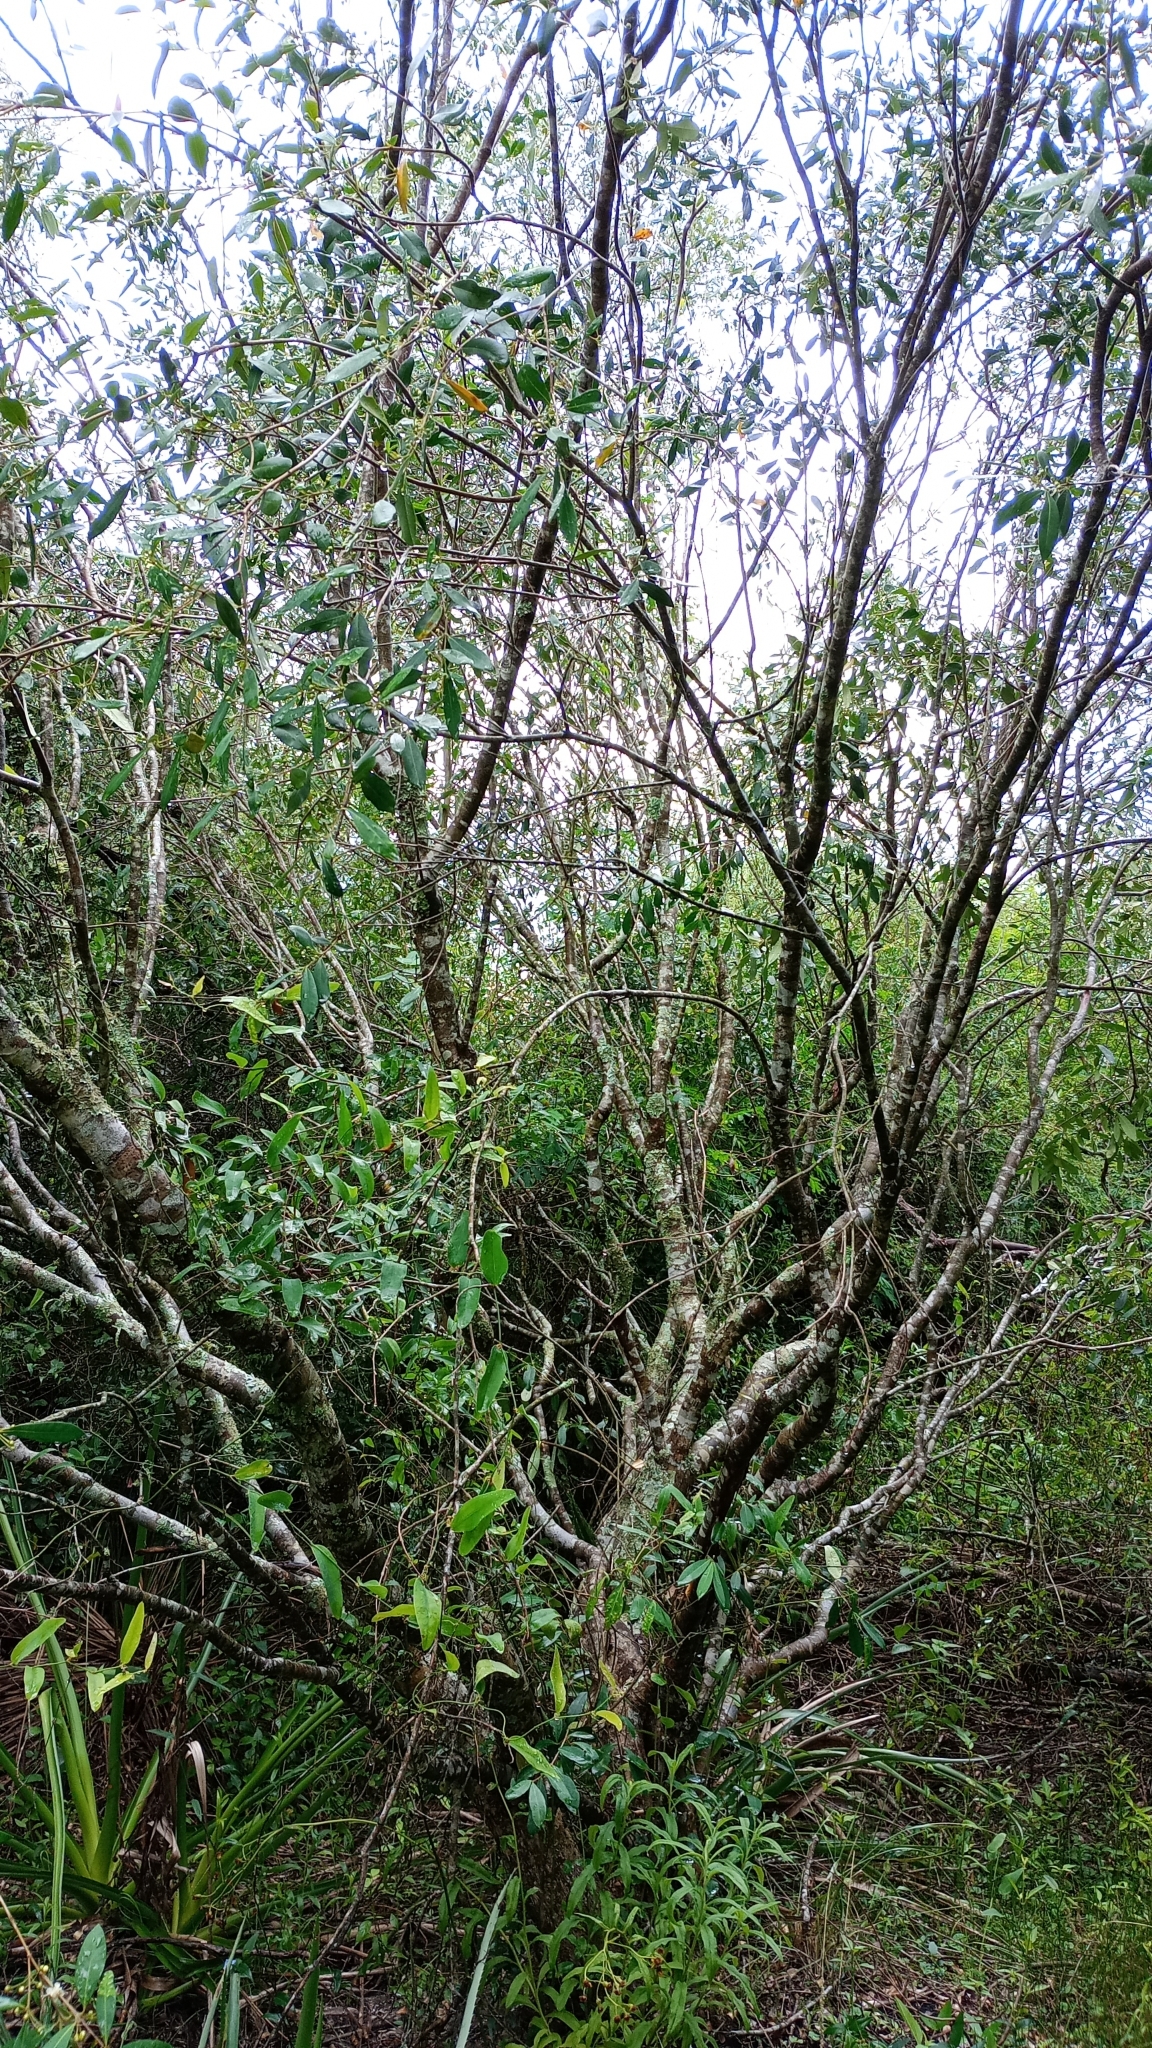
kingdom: Plantae
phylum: Tracheophyta
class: Magnoliopsida
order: Myrtales
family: Myrtaceae
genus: Myrceugenia
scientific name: Myrceugenia glaucescens
